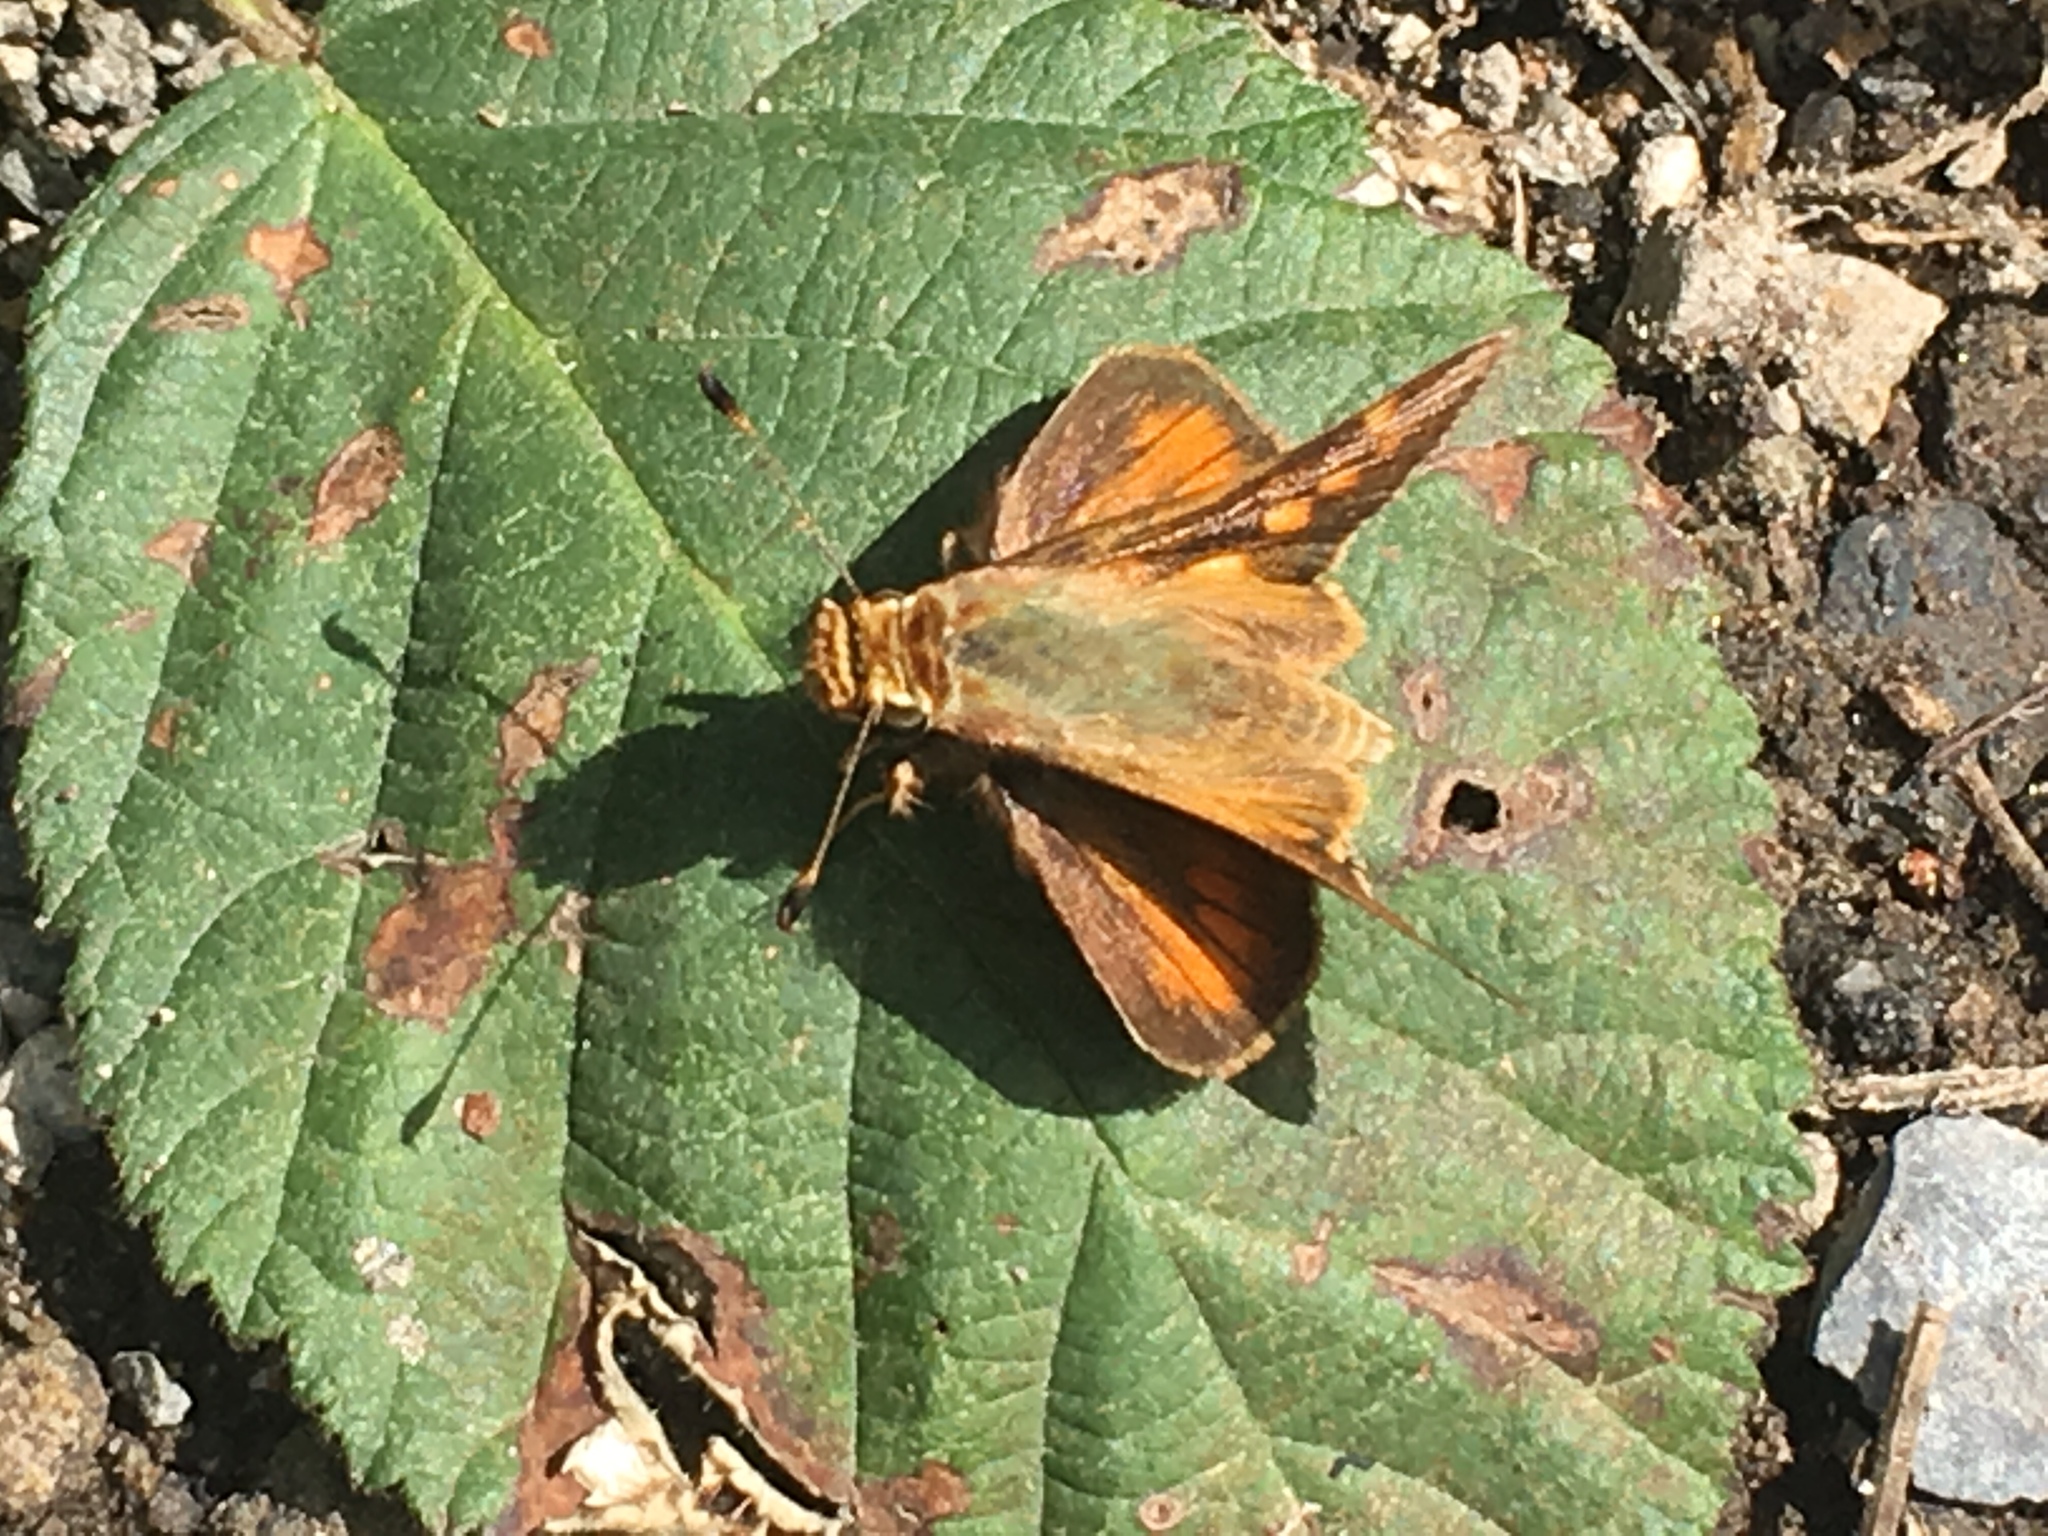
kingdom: Animalia
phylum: Arthropoda
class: Insecta
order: Lepidoptera
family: Hesperiidae
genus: Lon
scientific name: Lon melane
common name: Umber skipper
